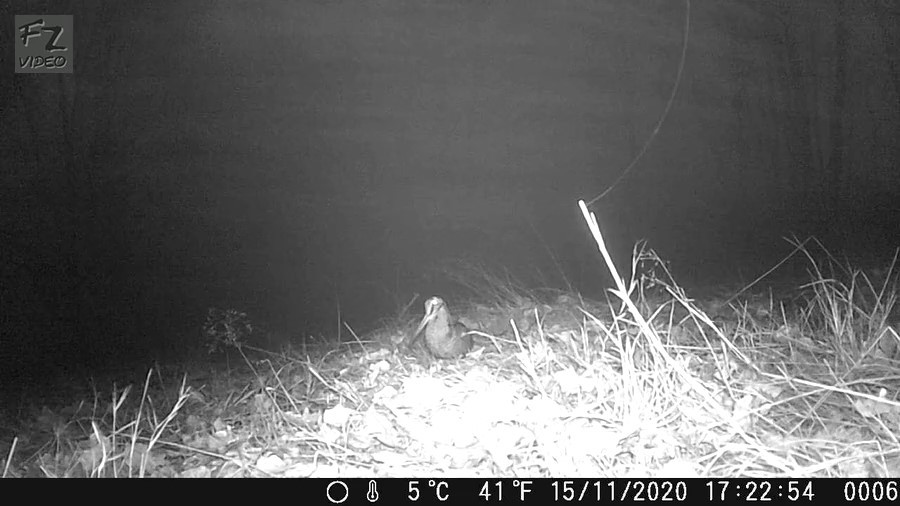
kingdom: Animalia
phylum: Chordata
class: Aves
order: Charadriiformes
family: Scolopacidae
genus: Scolopax
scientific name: Scolopax rusticola
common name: Eurasian woodcock
